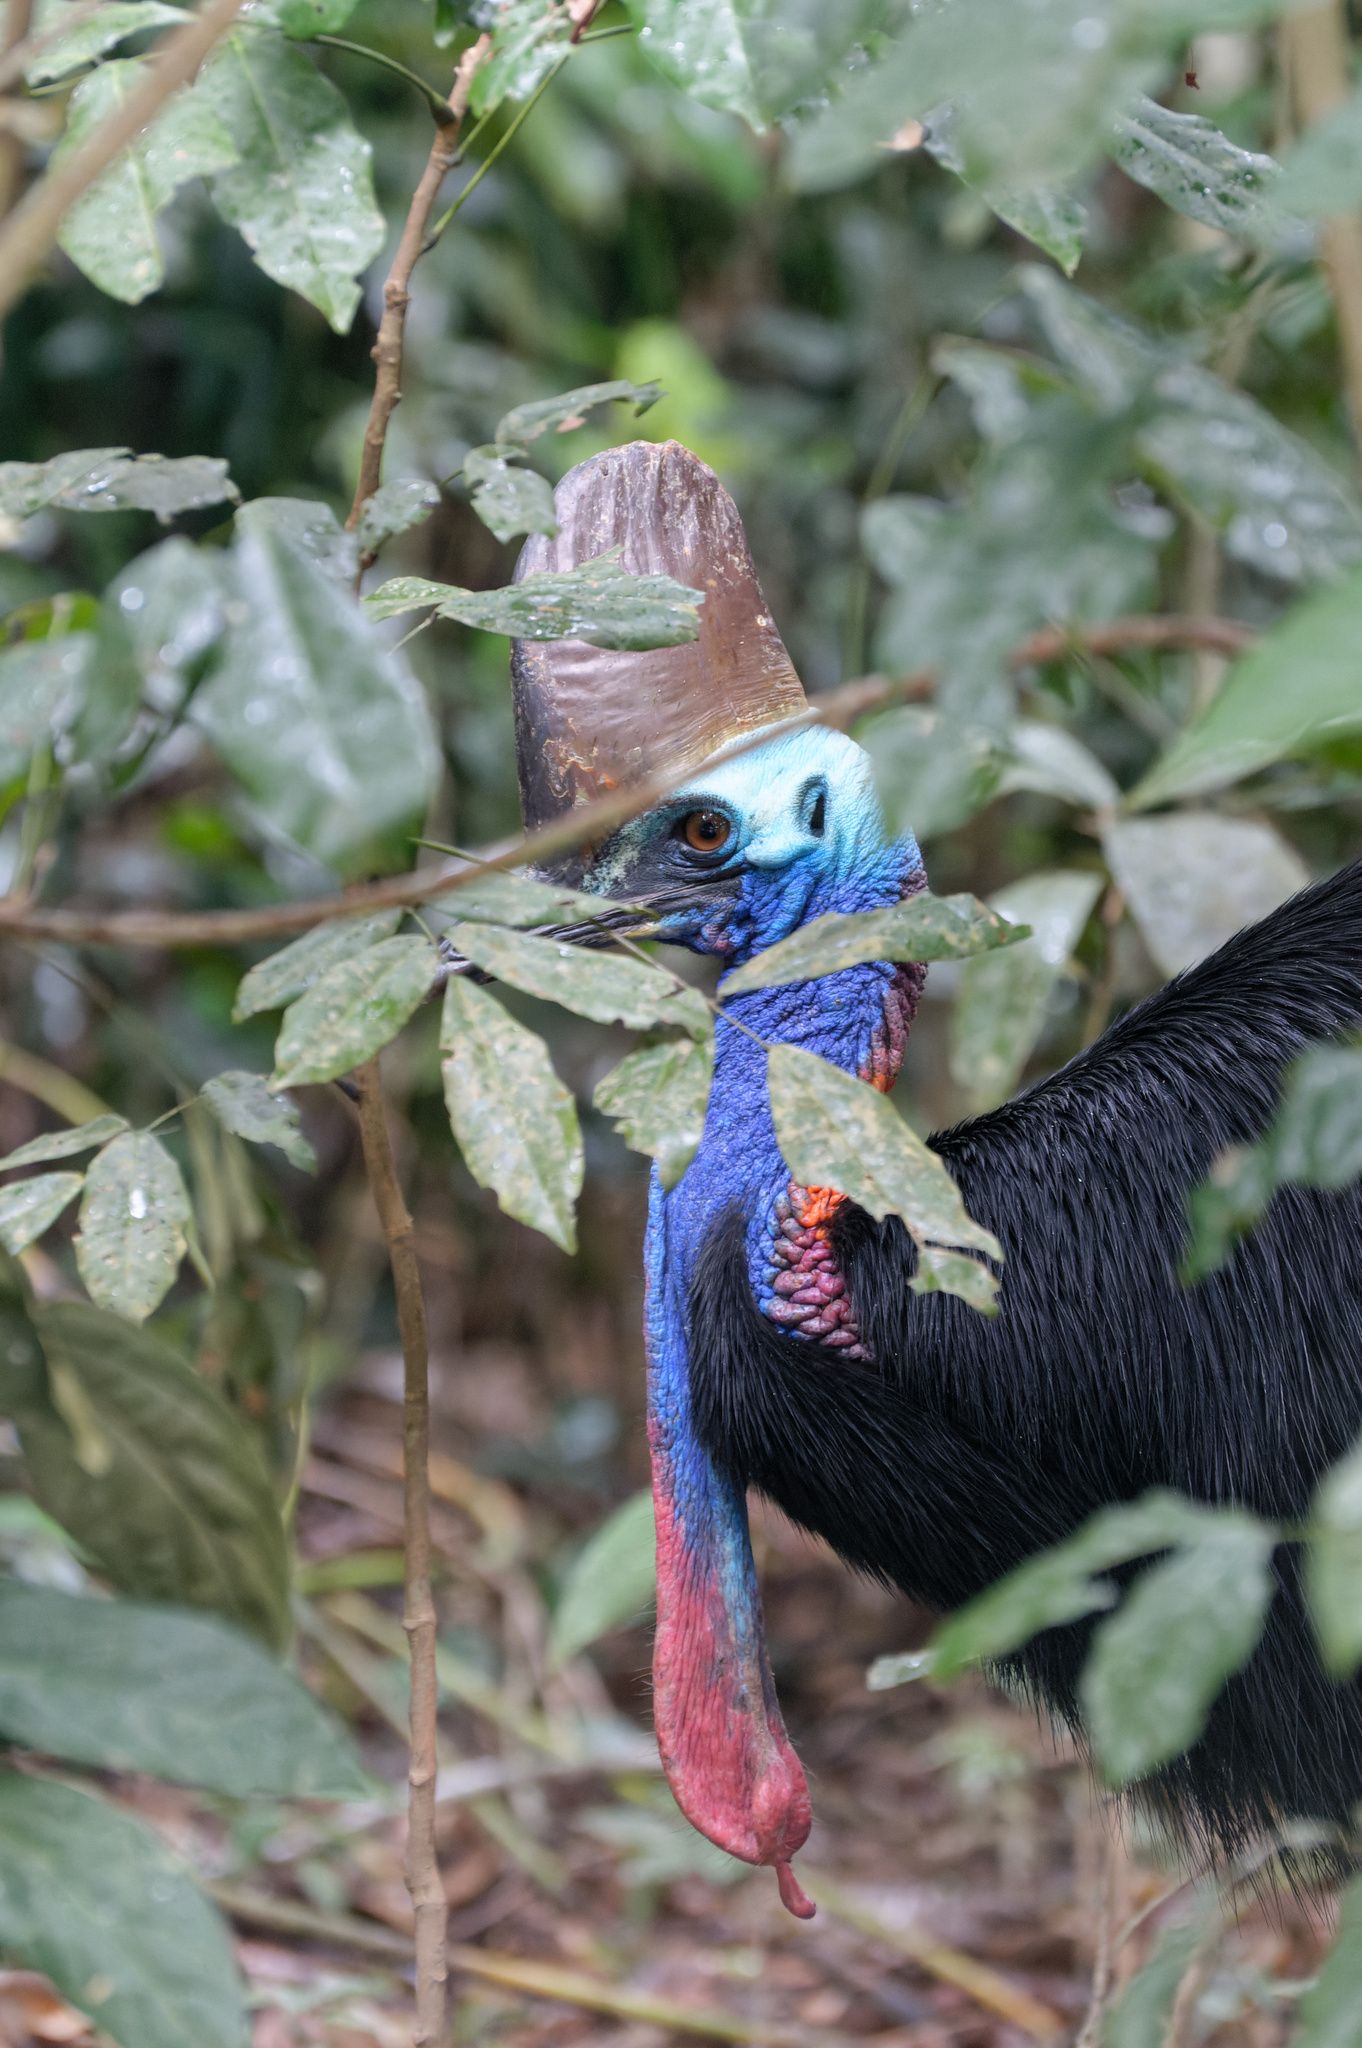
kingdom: Animalia
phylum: Chordata
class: Aves
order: Casuariiformes
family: Casuariidae
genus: Casuarius
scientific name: Casuarius casuarius
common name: Southern cassowary
